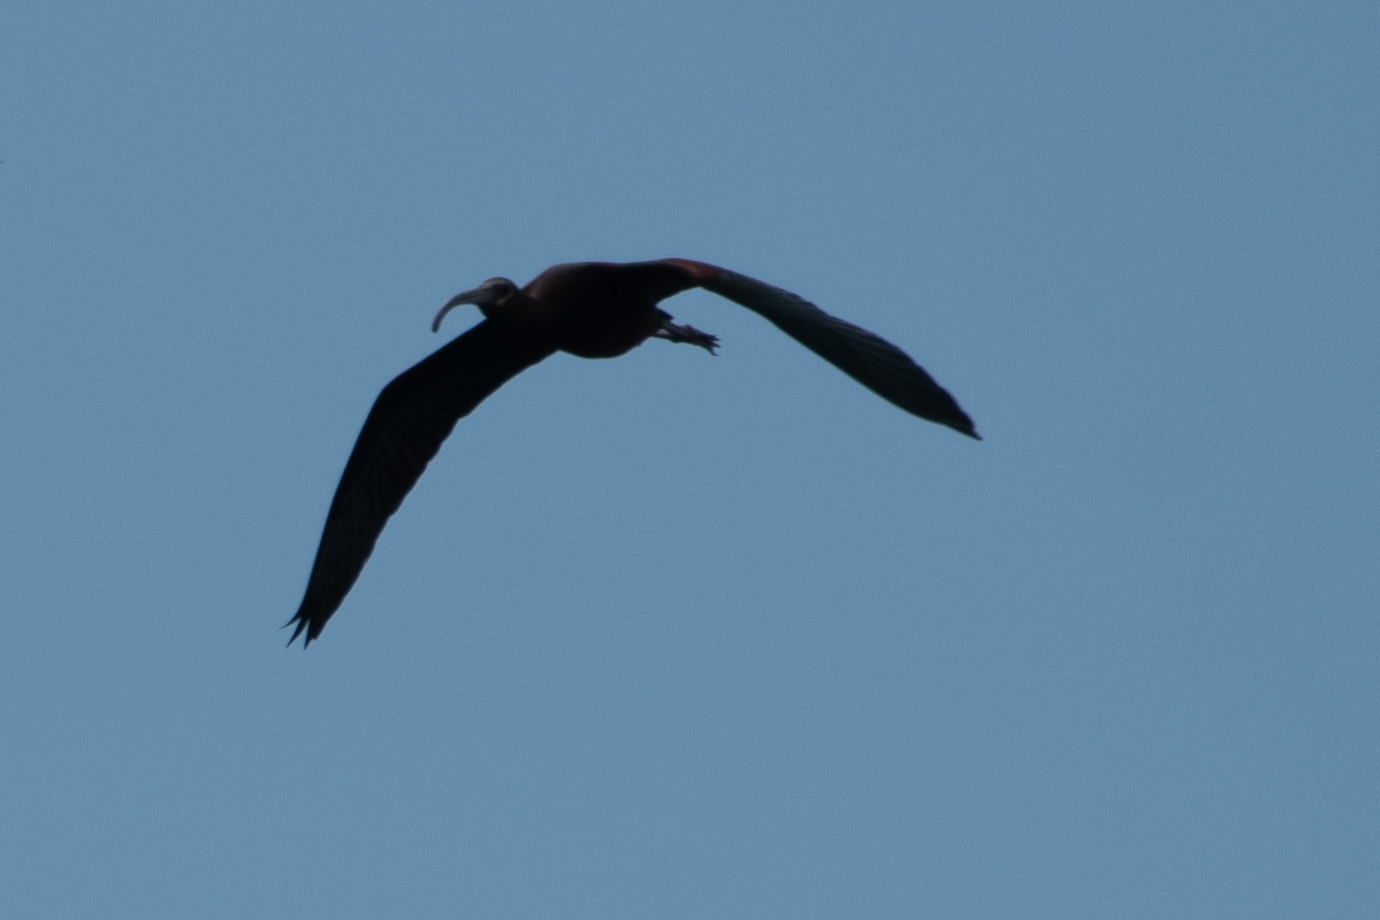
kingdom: Animalia
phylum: Chordata
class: Aves
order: Pelecaniformes
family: Threskiornithidae
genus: Plegadis
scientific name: Plegadis chihi
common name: White-faced ibis
